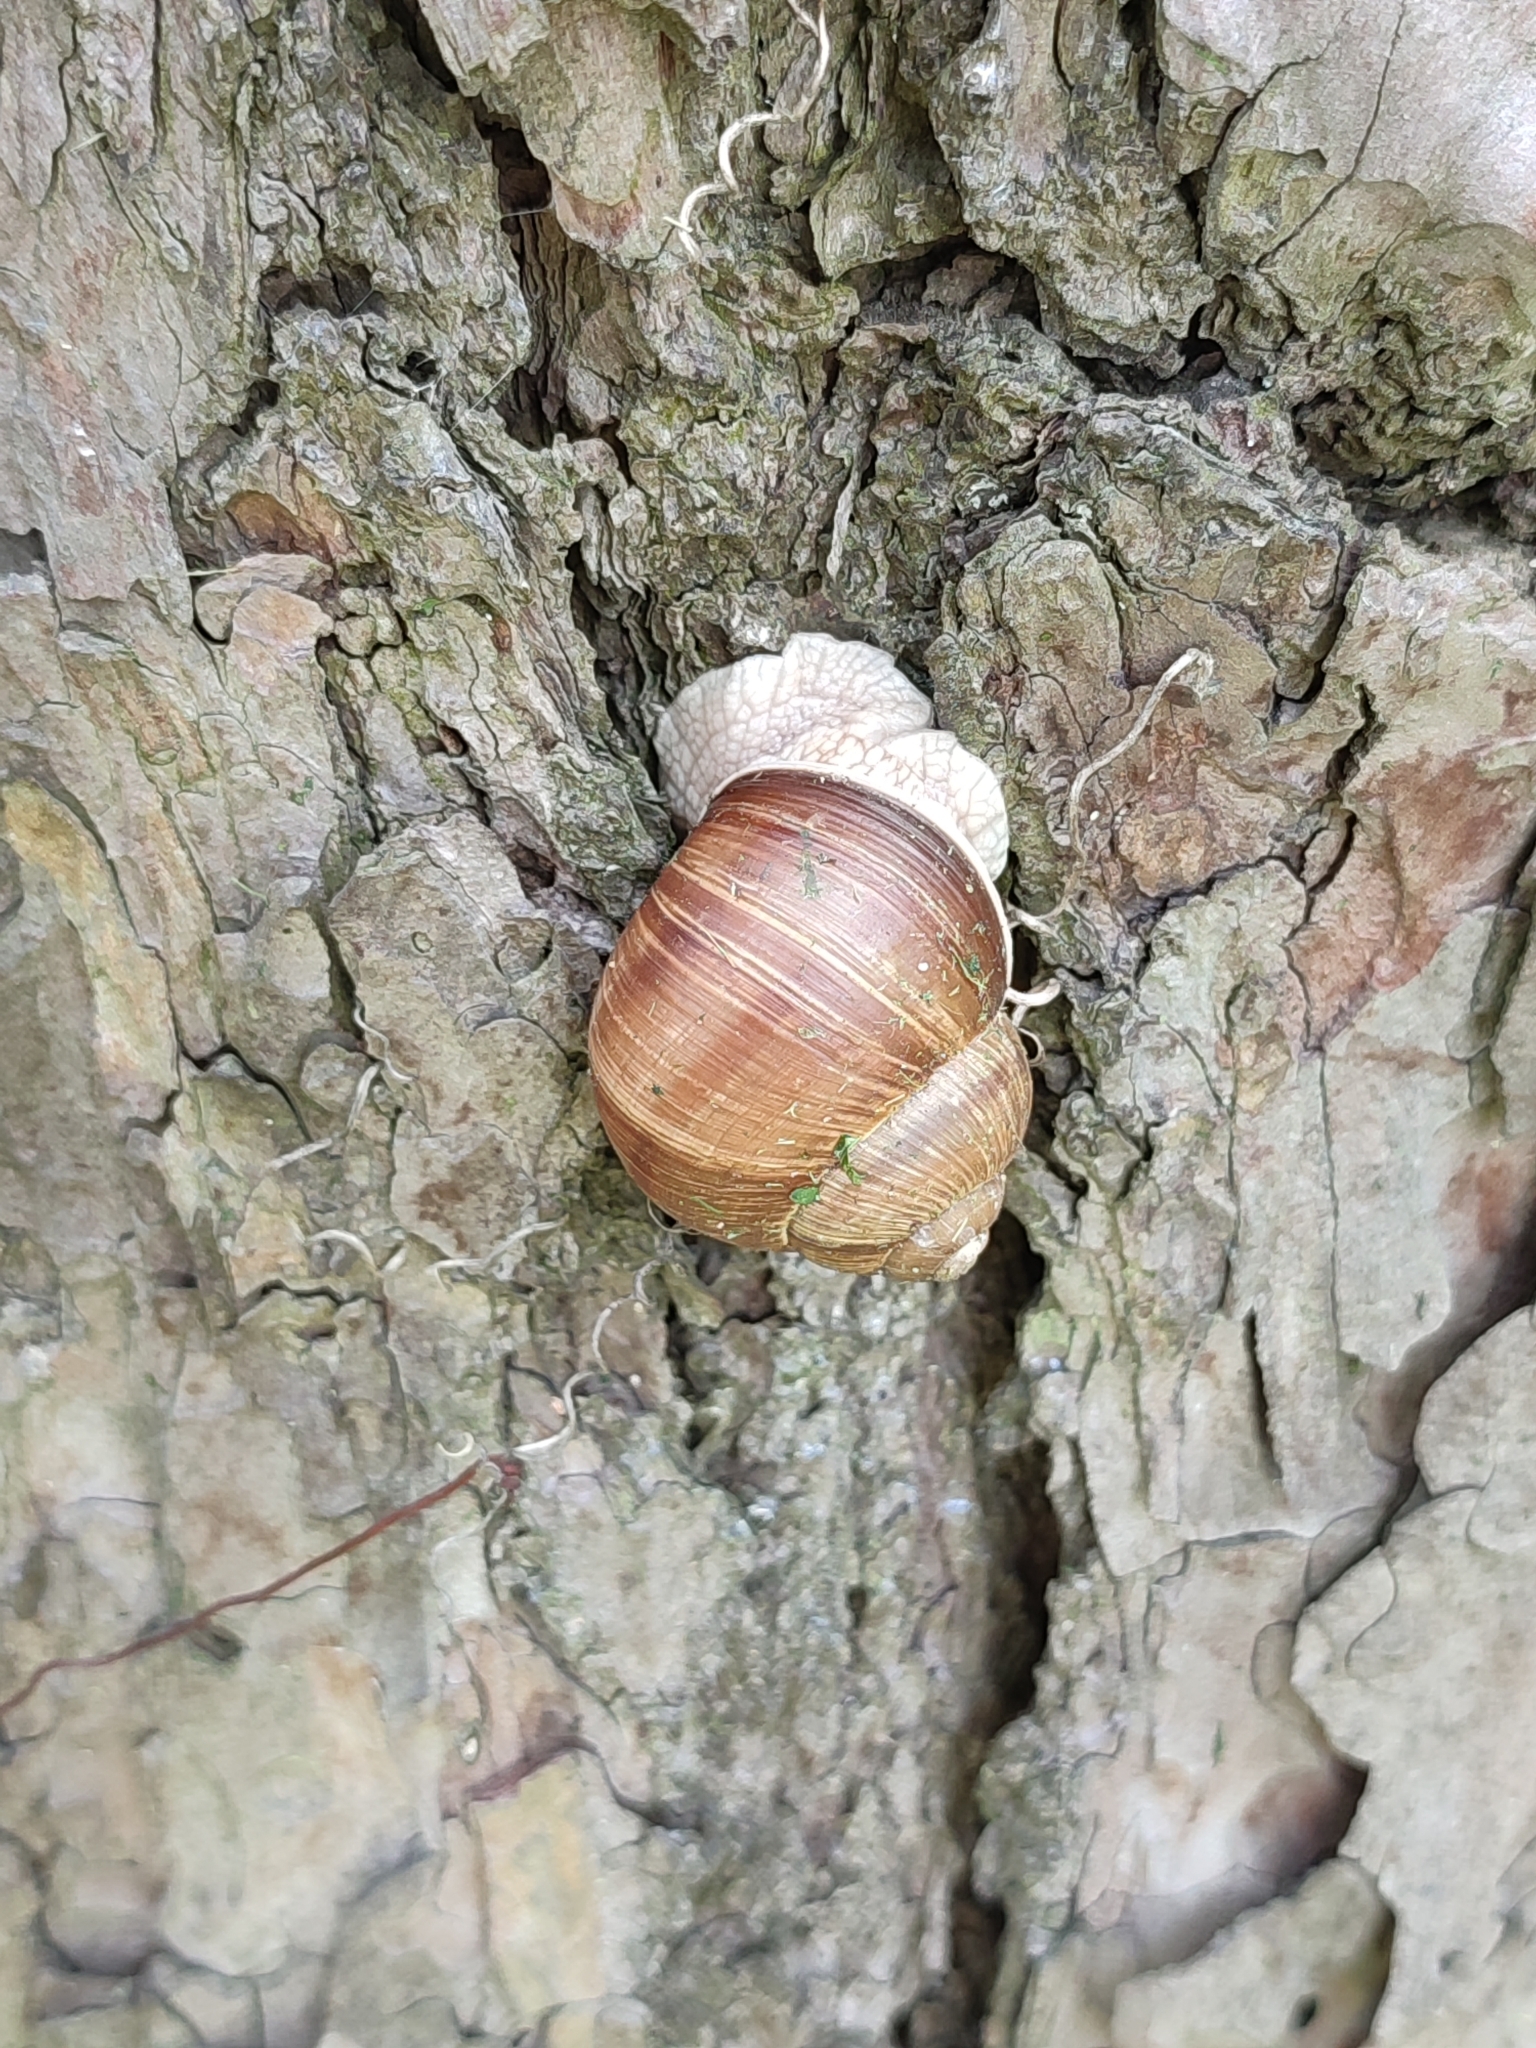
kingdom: Animalia
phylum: Mollusca
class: Gastropoda
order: Stylommatophora
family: Helicidae
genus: Helix
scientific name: Helix pomatia
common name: Roman snail
